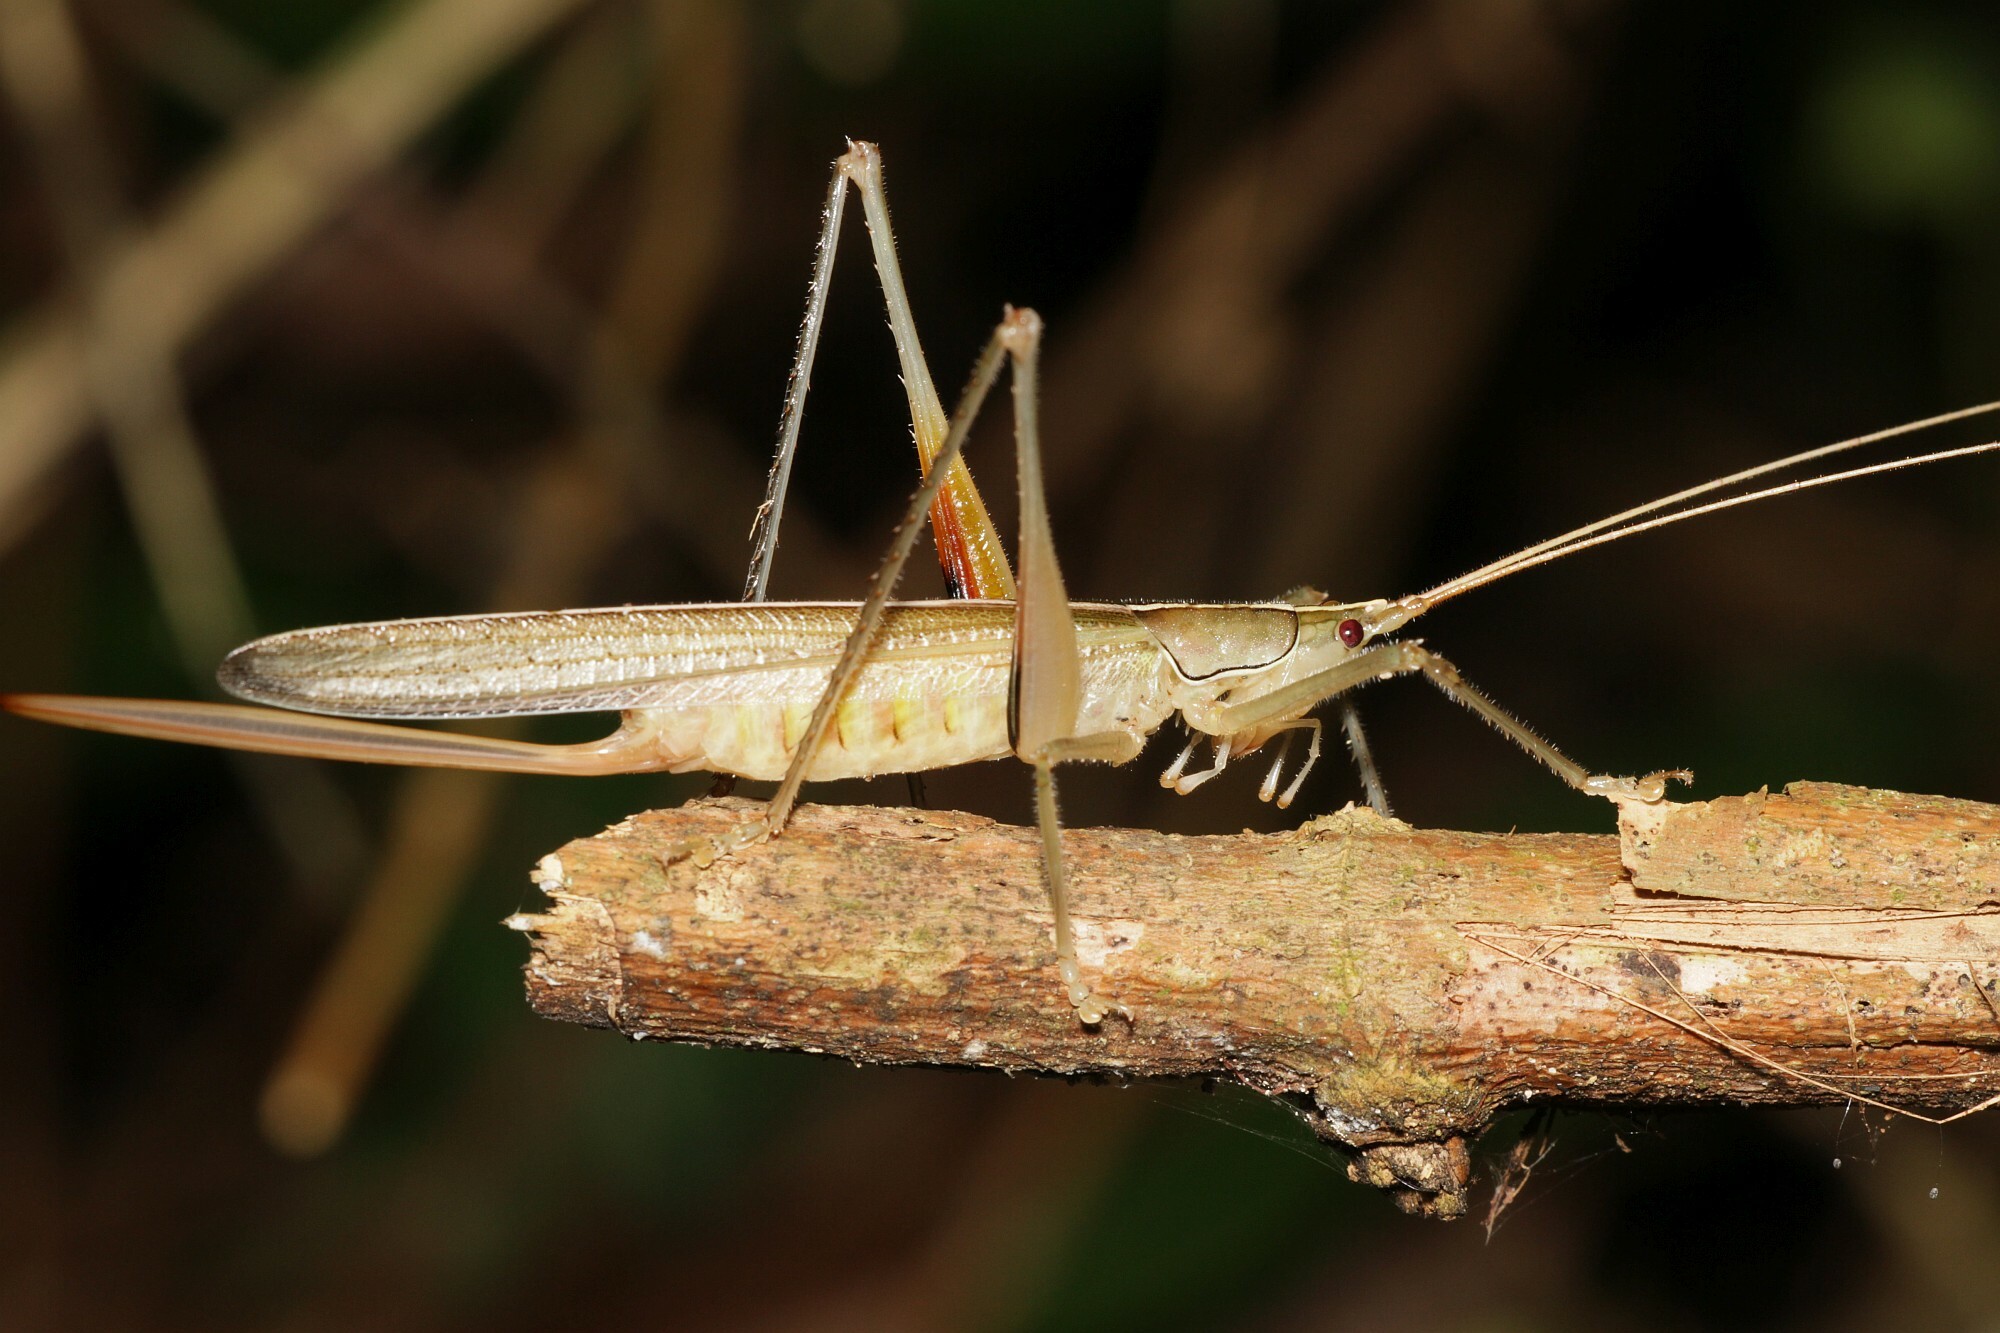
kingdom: Animalia
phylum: Arthropoda
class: Insecta
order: Orthoptera
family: Tettigoniidae
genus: Graminofolium
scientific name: Graminofolium castneri
